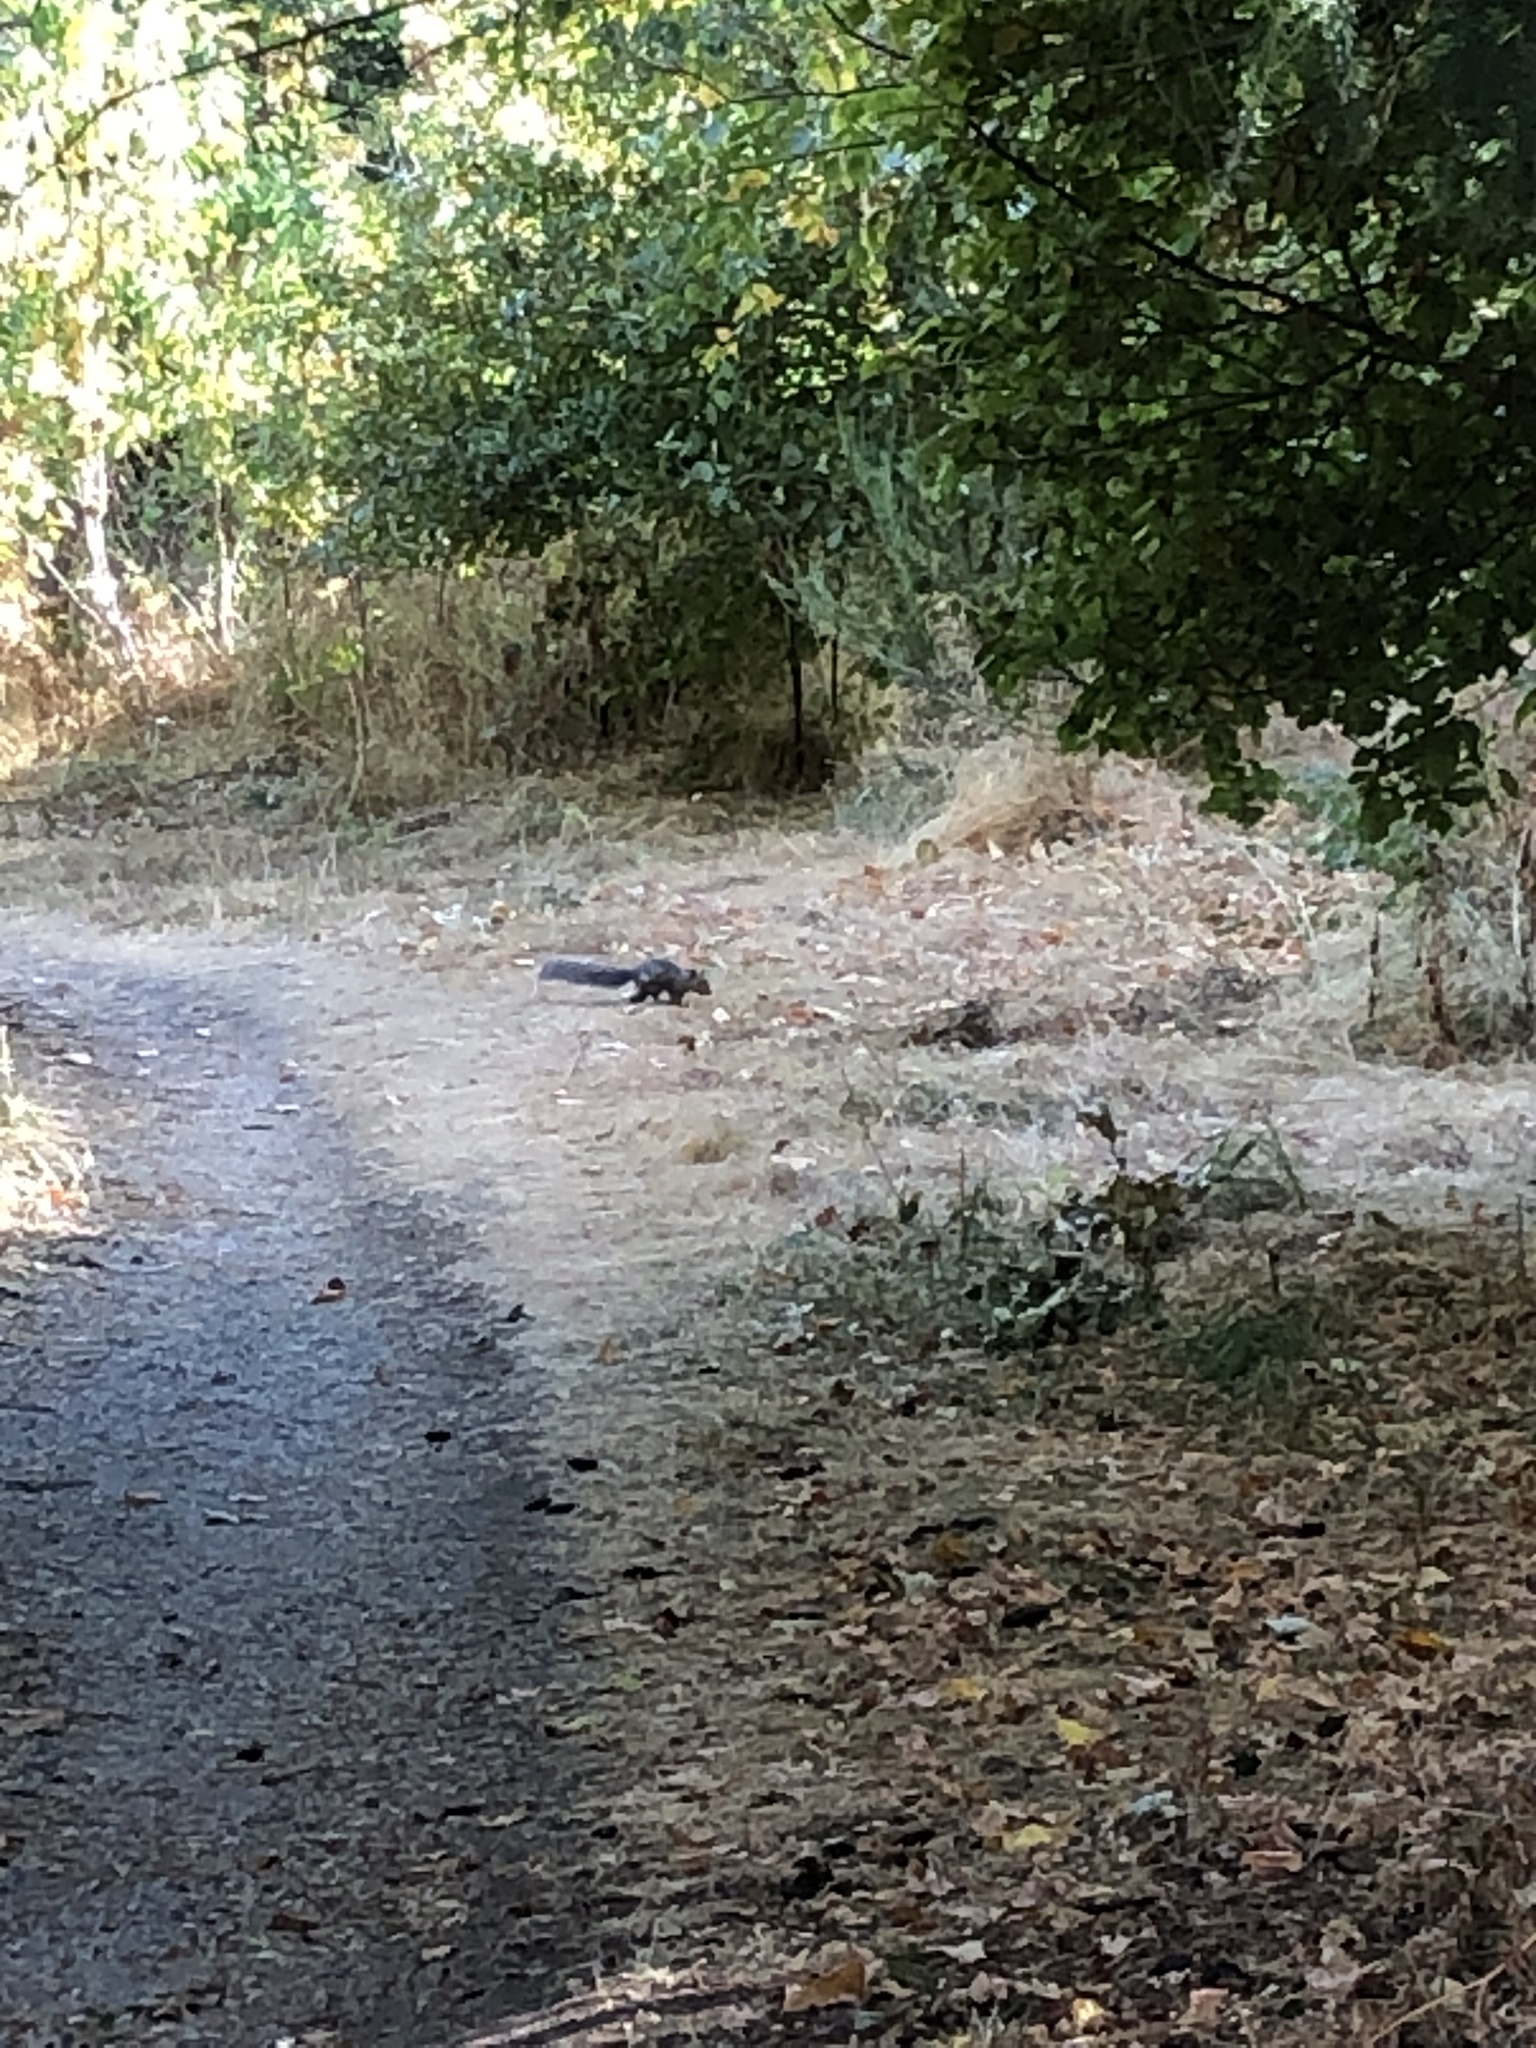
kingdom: Animalia
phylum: Chordata
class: Mammalia
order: Rodentia
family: Sciuridae
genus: Sciurus
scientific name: Sciurus carolinensis
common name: Eastern gray squirrel
